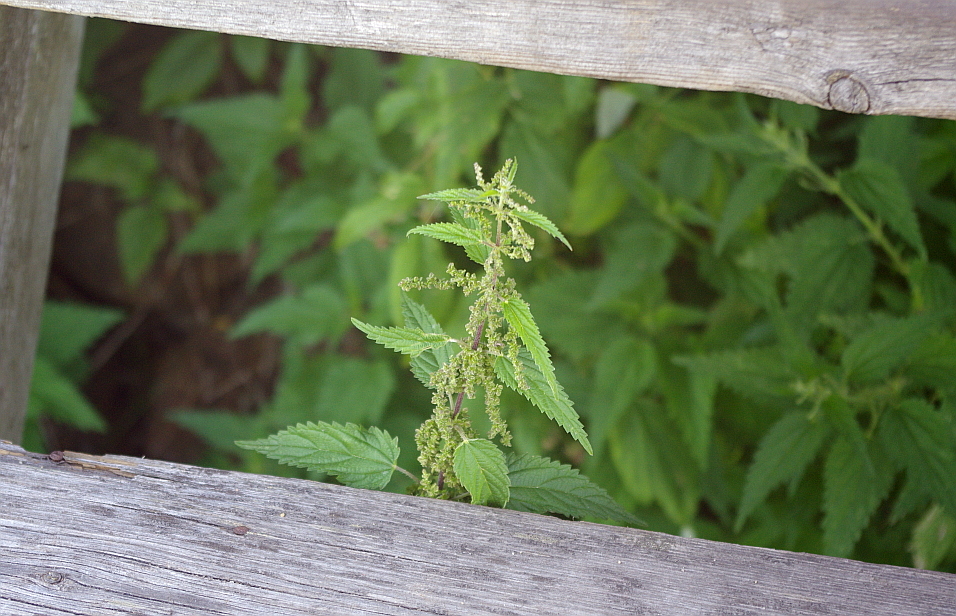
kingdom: Plantae
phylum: Tracheophyta
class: Magnoliopsida
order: Rosales
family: Urticaceae
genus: Urtica
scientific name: Urtica dioica
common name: Common nettle
